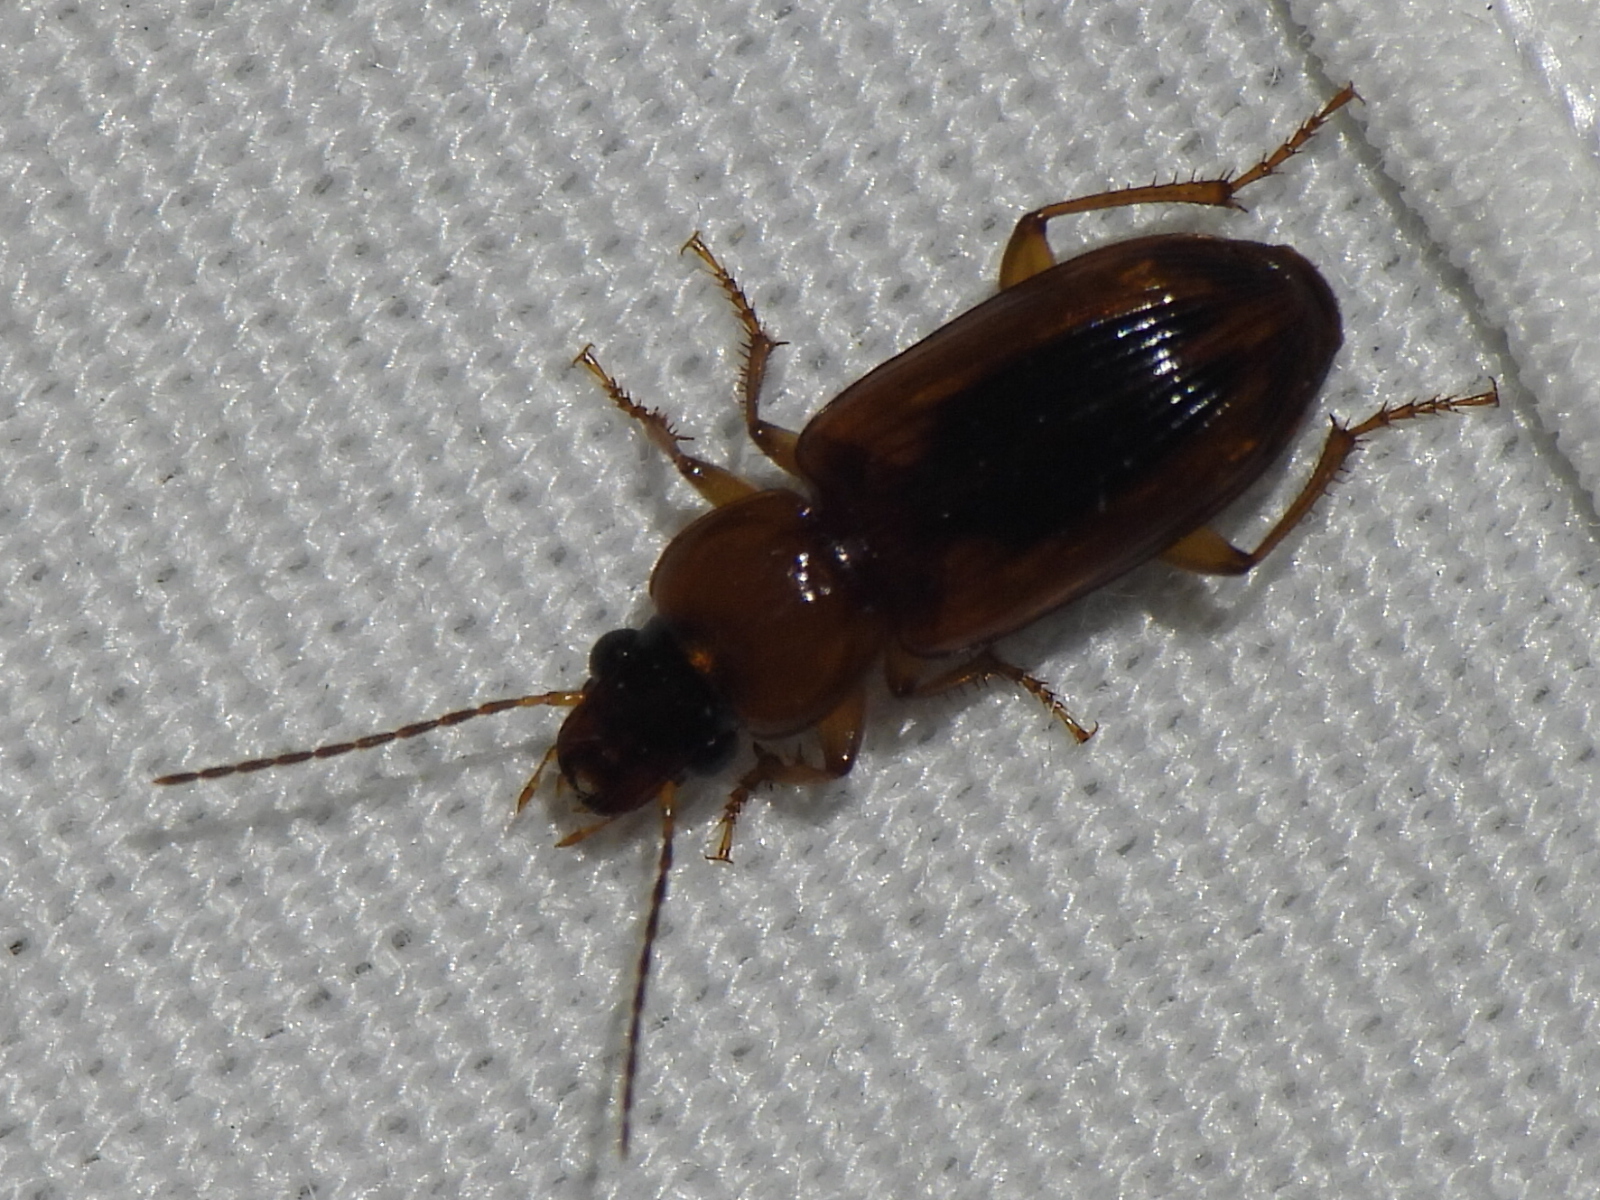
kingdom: Animalia
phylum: Arthropoda
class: Insecta
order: Coleoptera
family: Carabidae
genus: Stenolophus
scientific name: Stenolophus dissimilis
